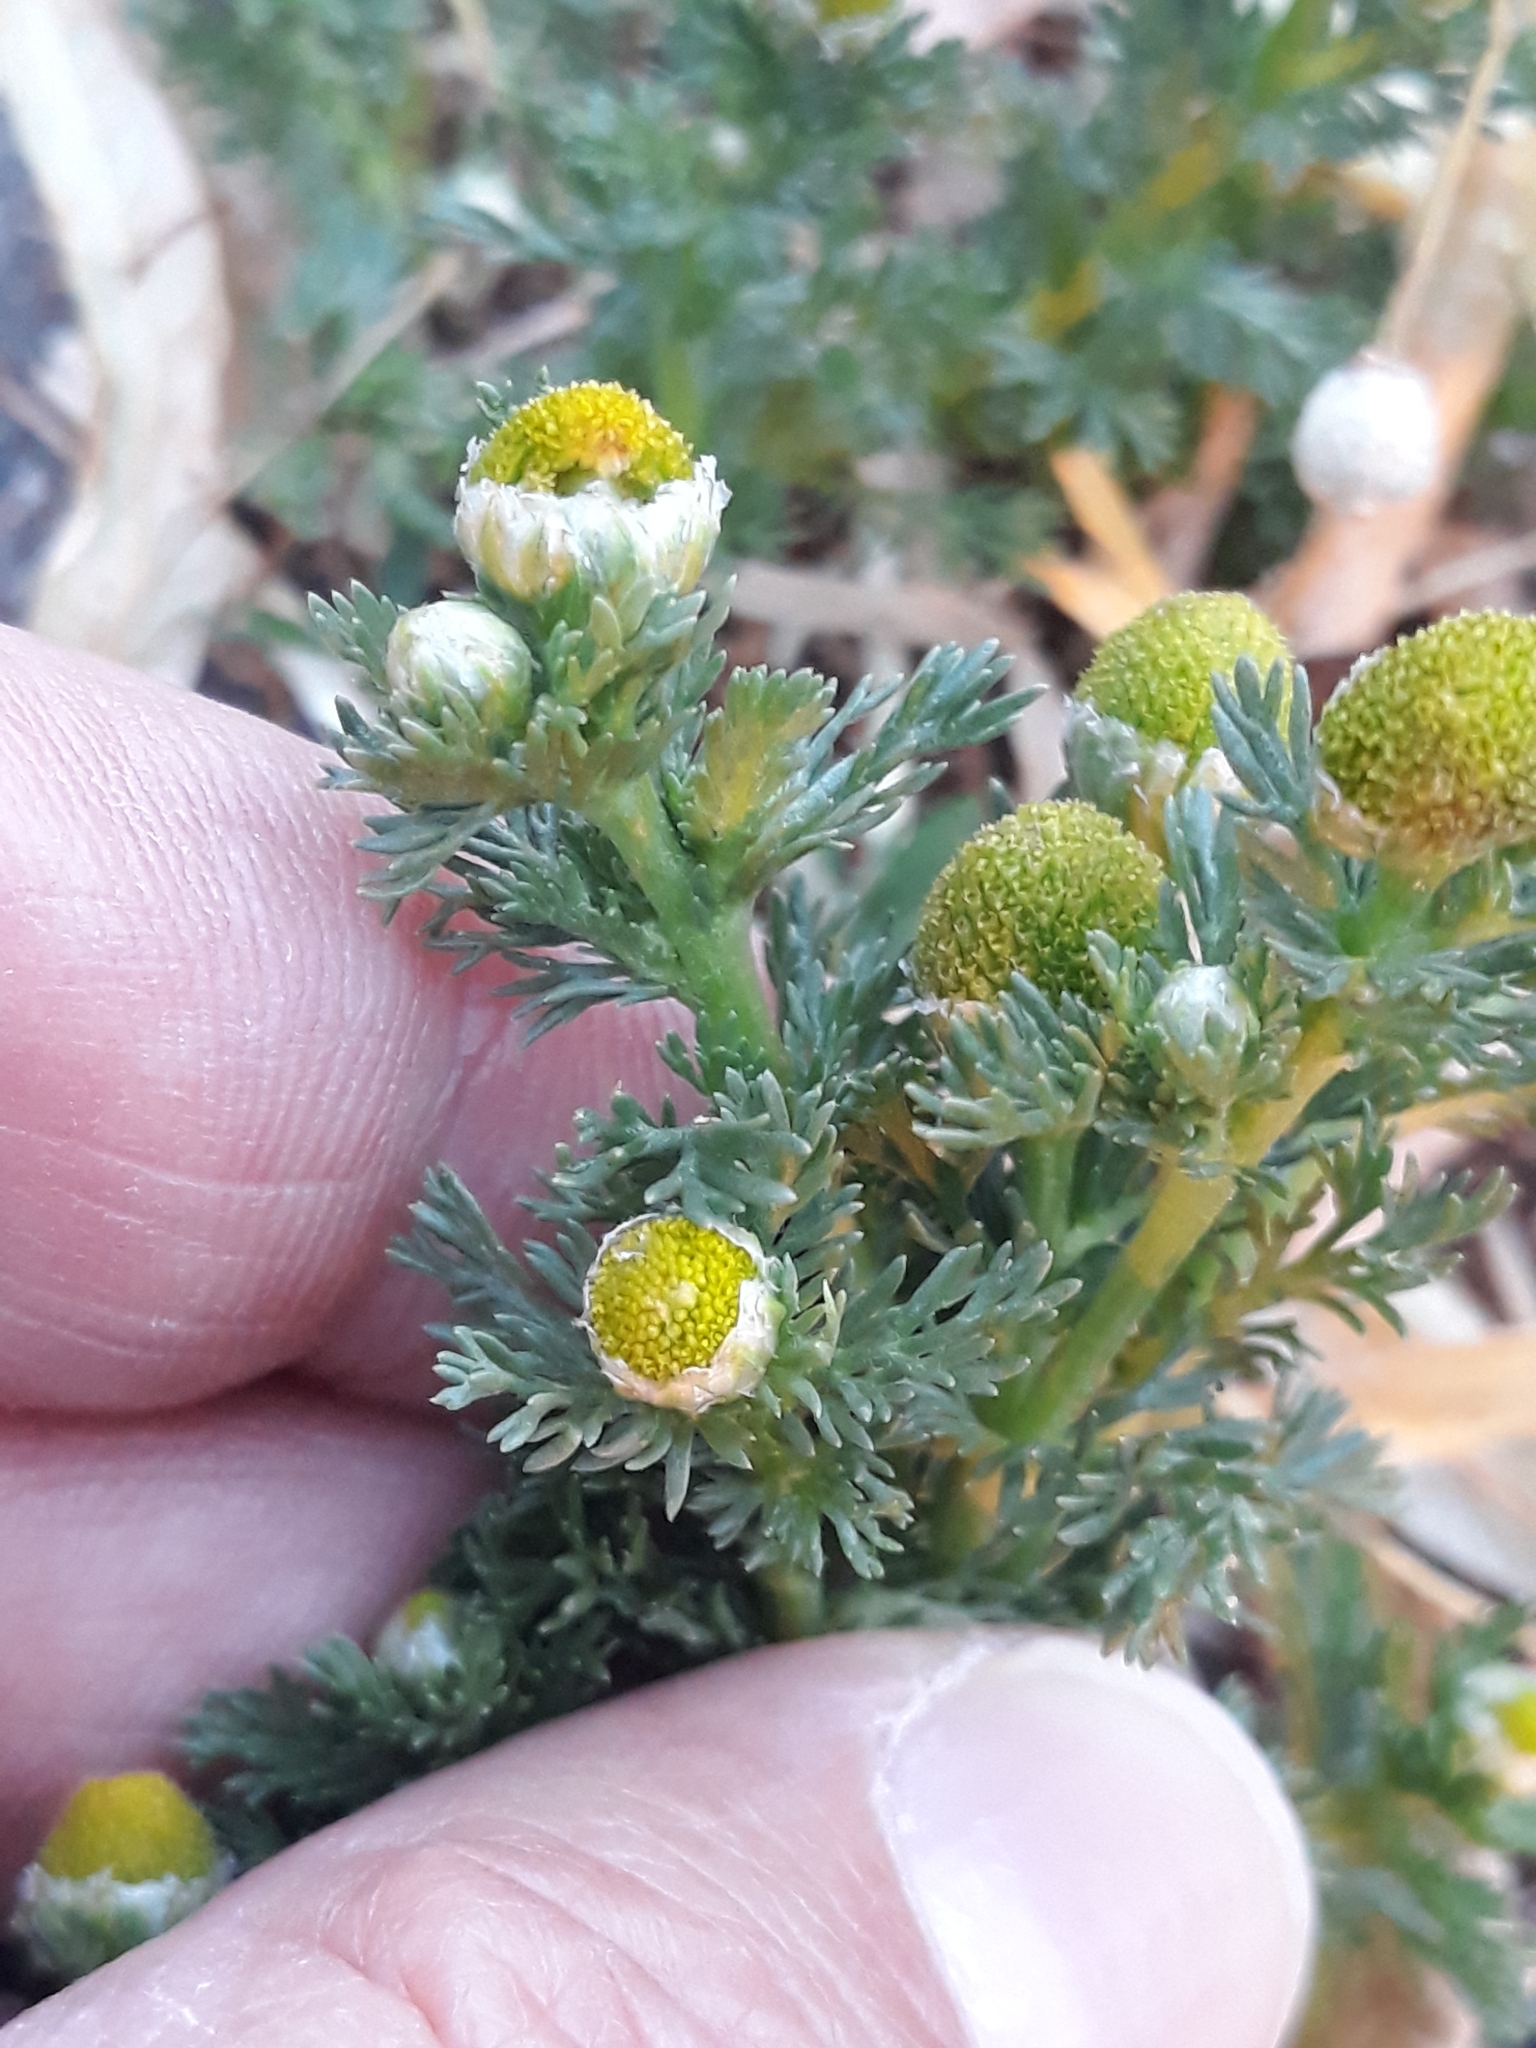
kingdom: Plantae
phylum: Tracheophyta
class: Magnoliopsida
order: Asterales
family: Asteraceae
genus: Matricaria
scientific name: Matricaria discoidea
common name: Disc mayweed
